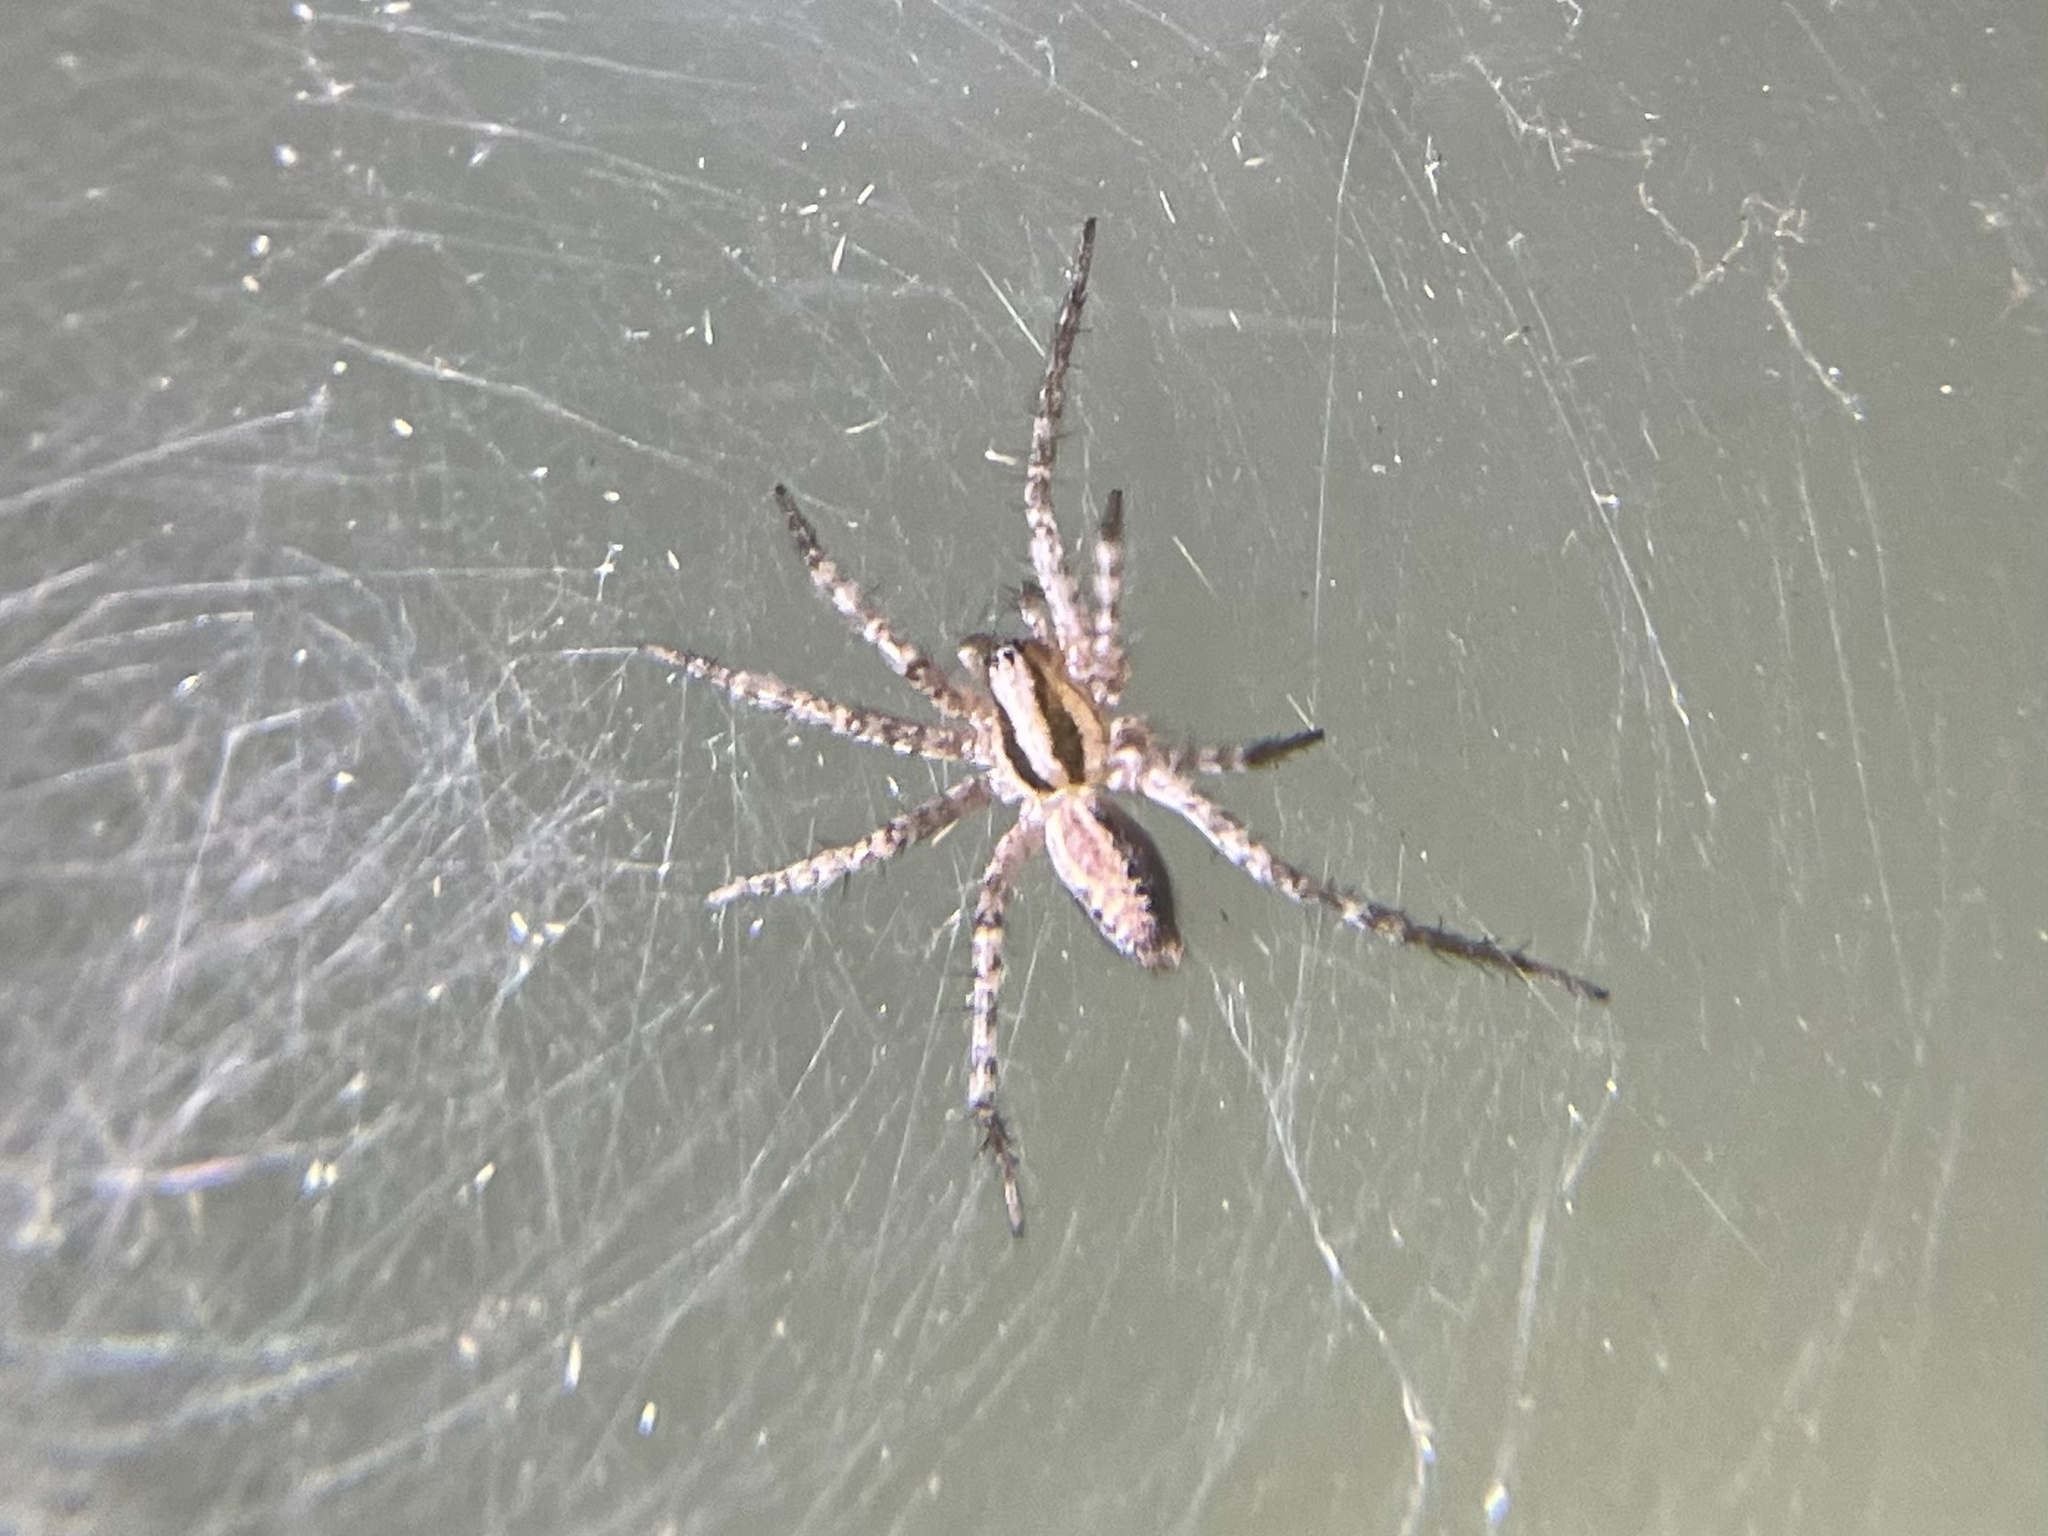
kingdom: Animalia
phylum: Arthropoda
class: Arachnida
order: Araneae
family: Agelenidae
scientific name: Agelenidae
